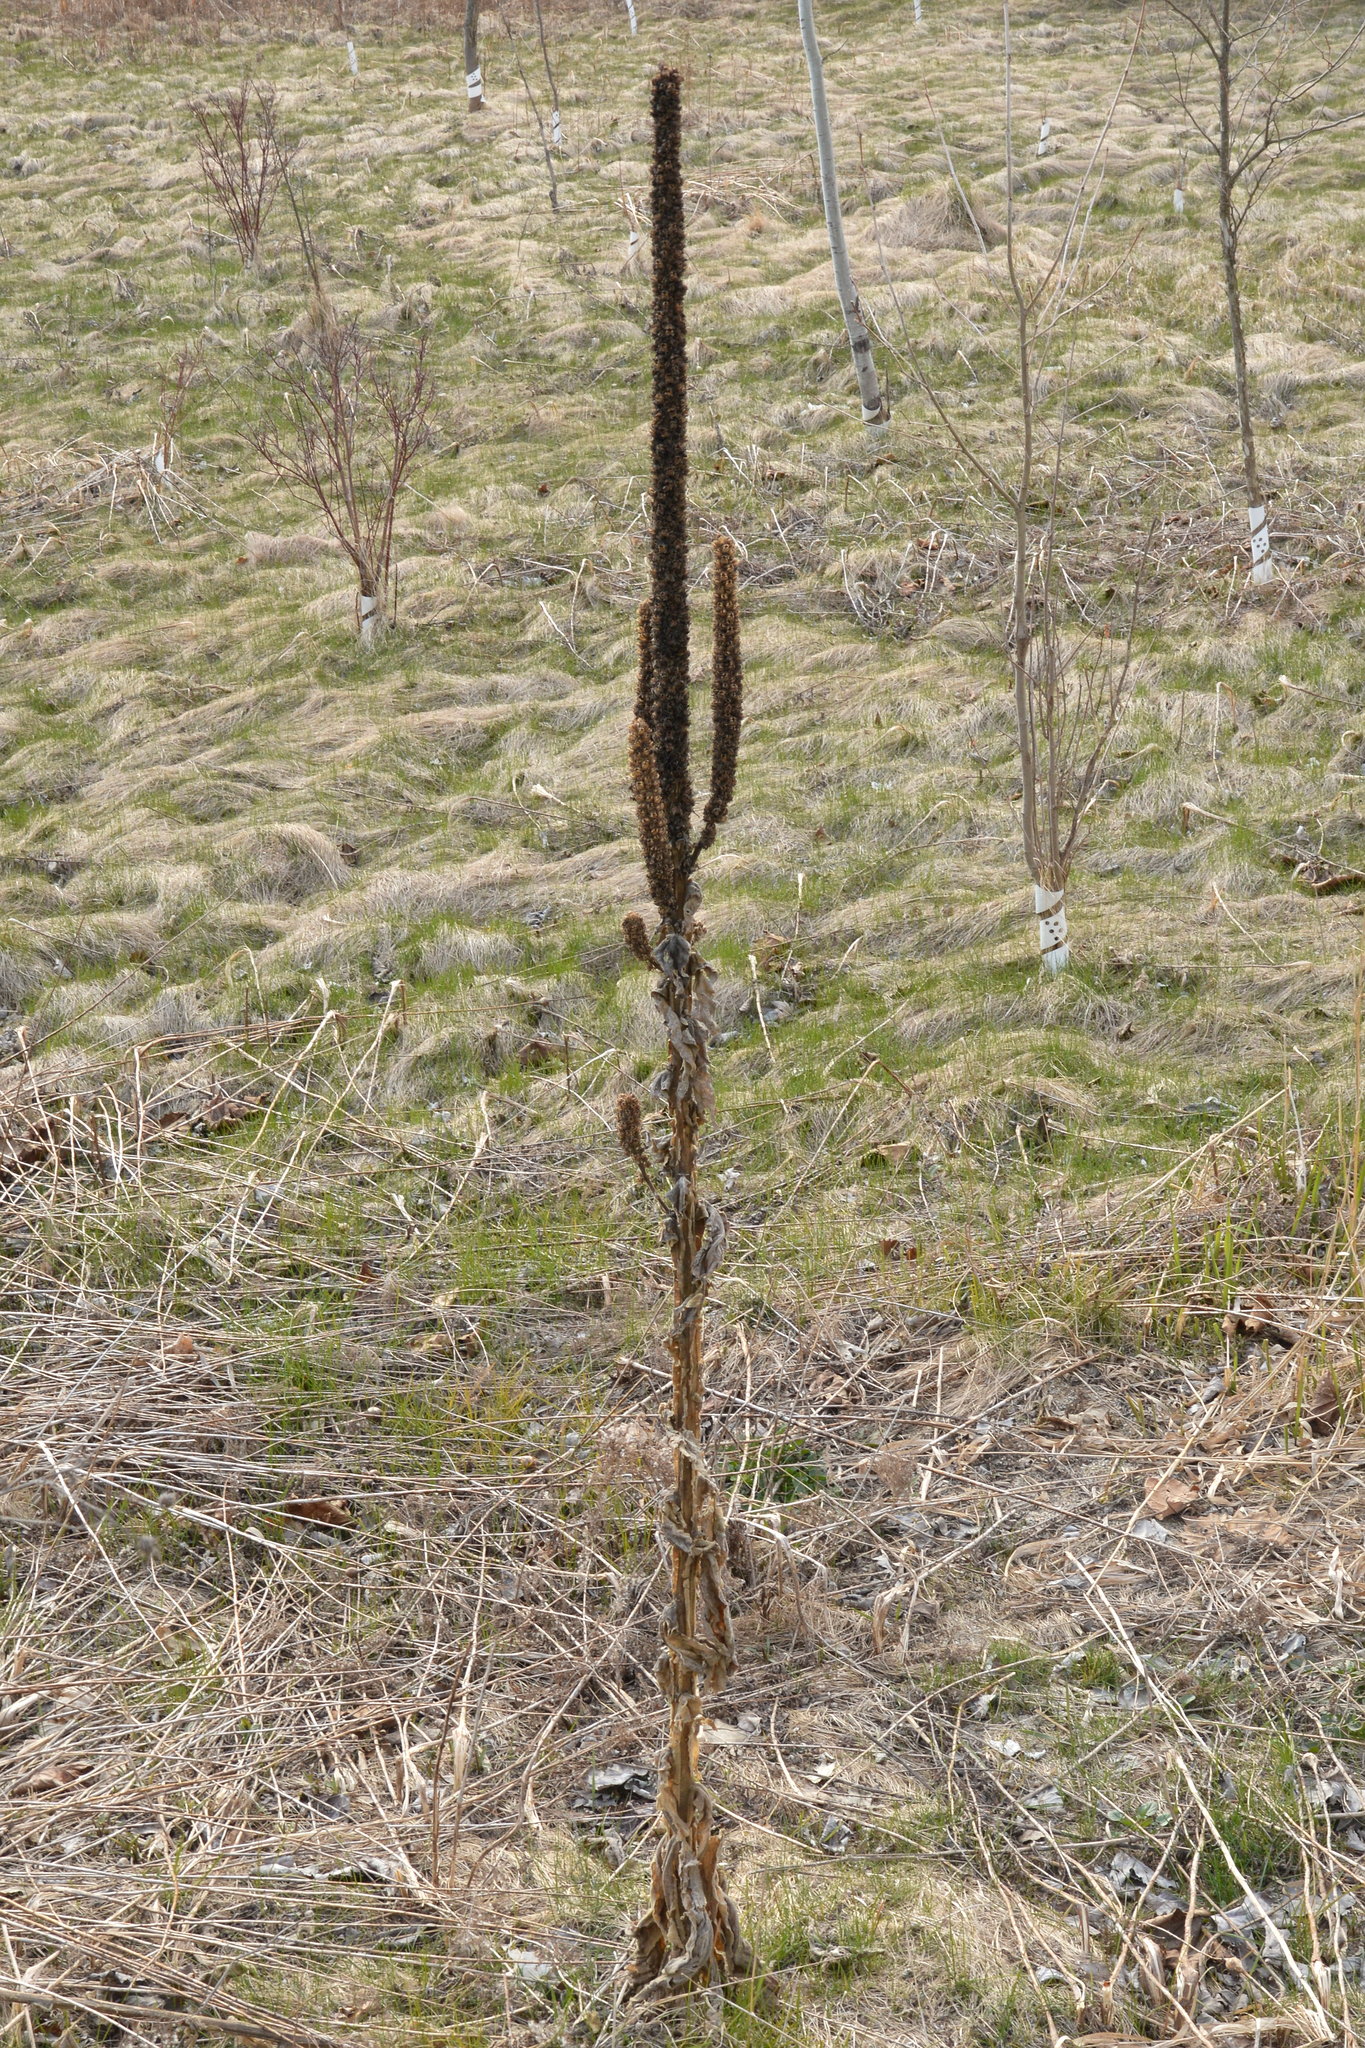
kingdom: Plantae
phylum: Tracheophyta
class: Magnoliopsida
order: Lamiales
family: Scrophulariaceae
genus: Verbascum
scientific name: Verbascum thapsus
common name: Common mullein
